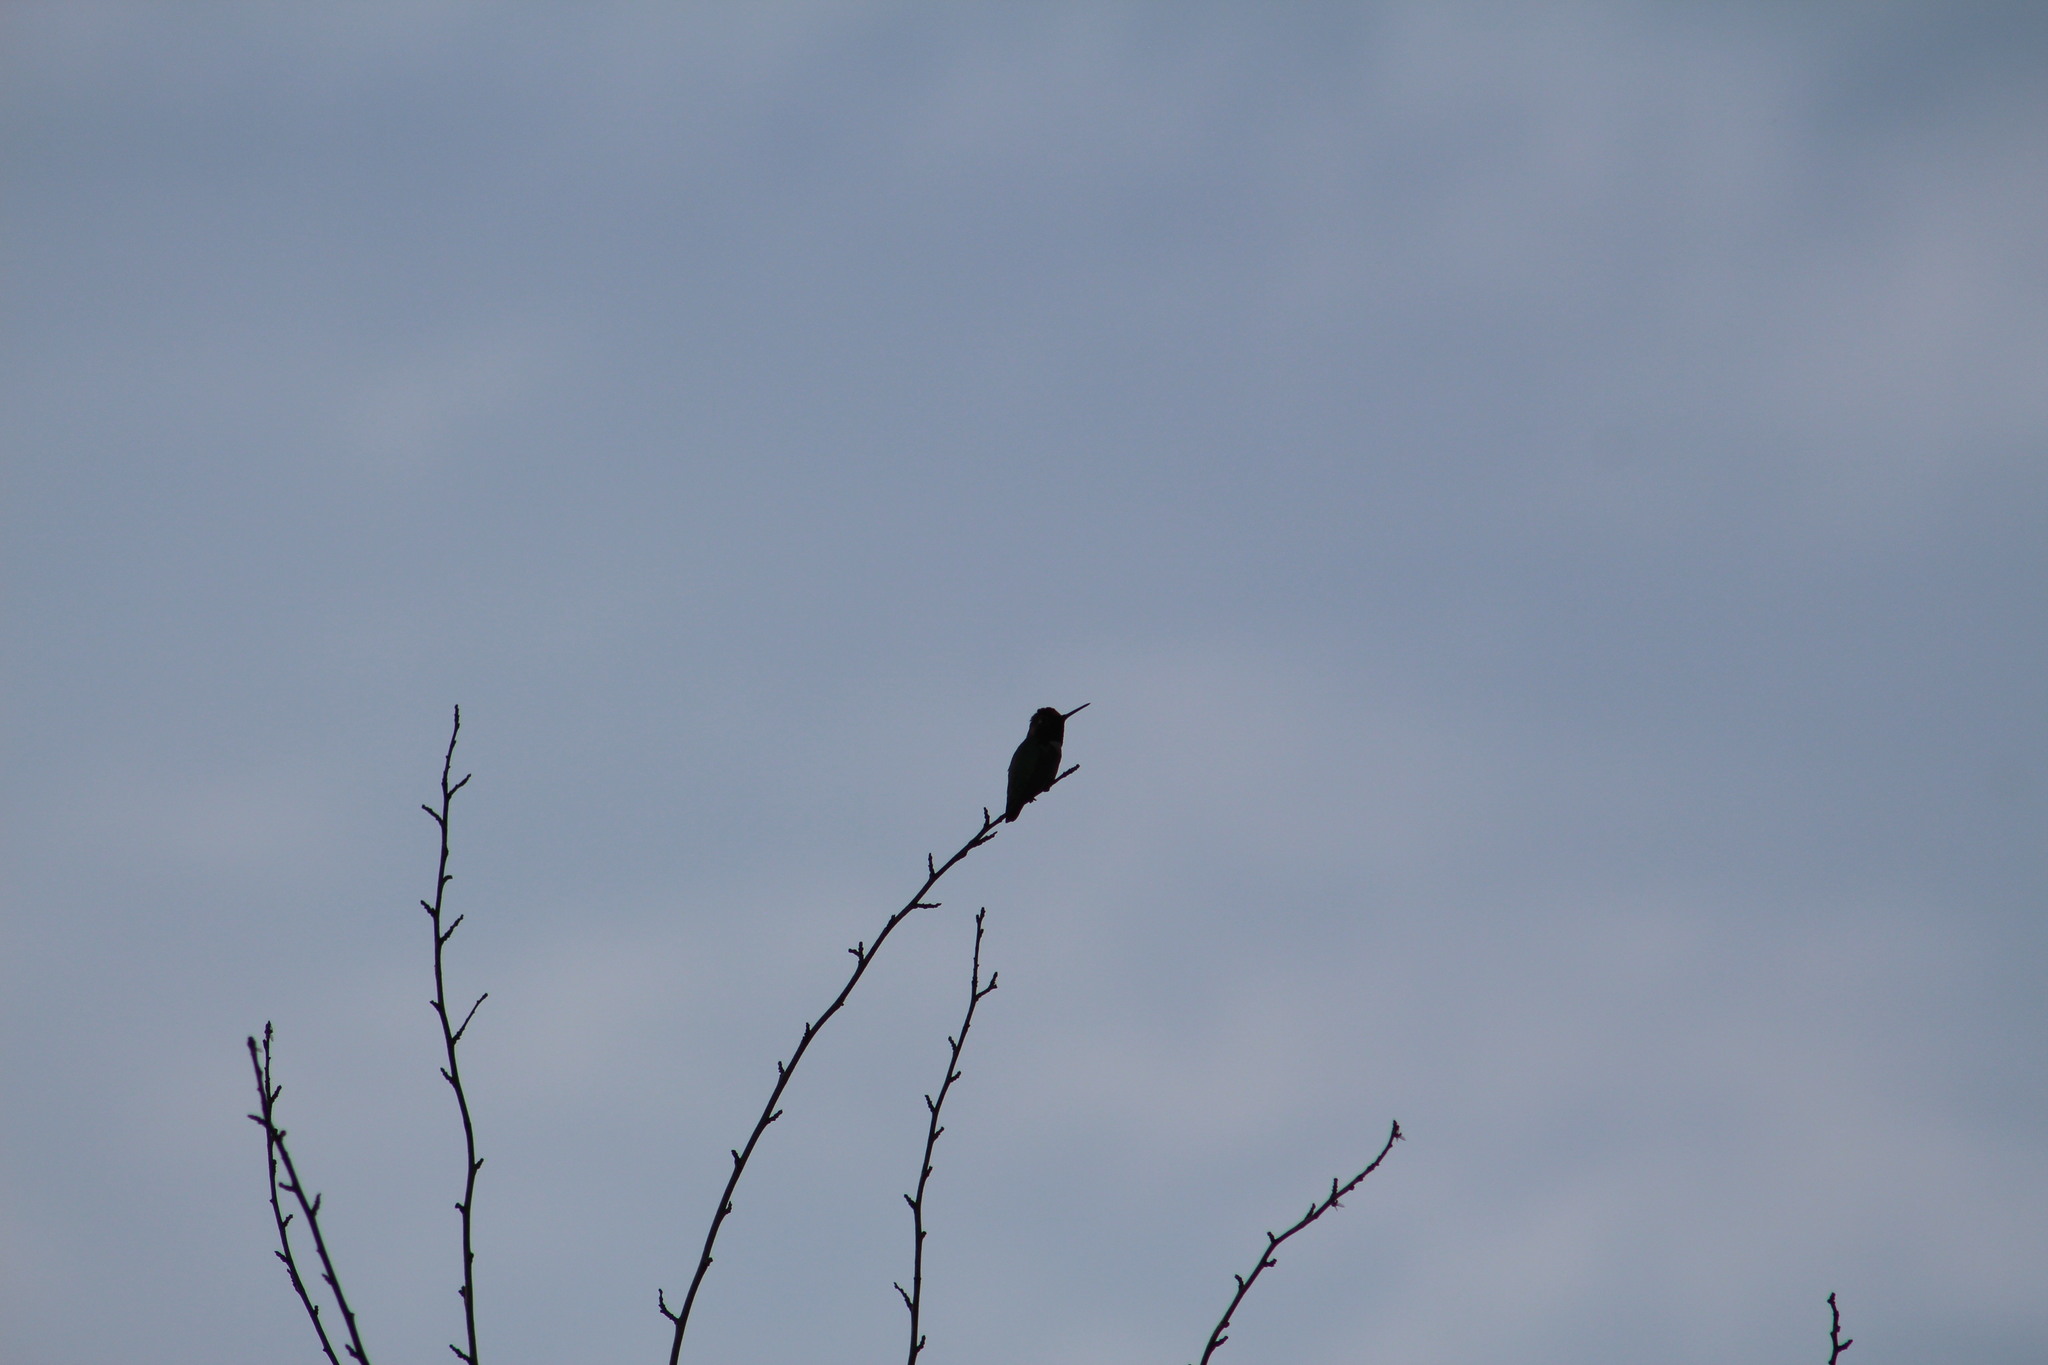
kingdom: Animalia
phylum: Chordata
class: Aves
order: Apodiformes
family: Trochilidae
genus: Calypte
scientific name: Calypte anna
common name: Anna's hummingbird
